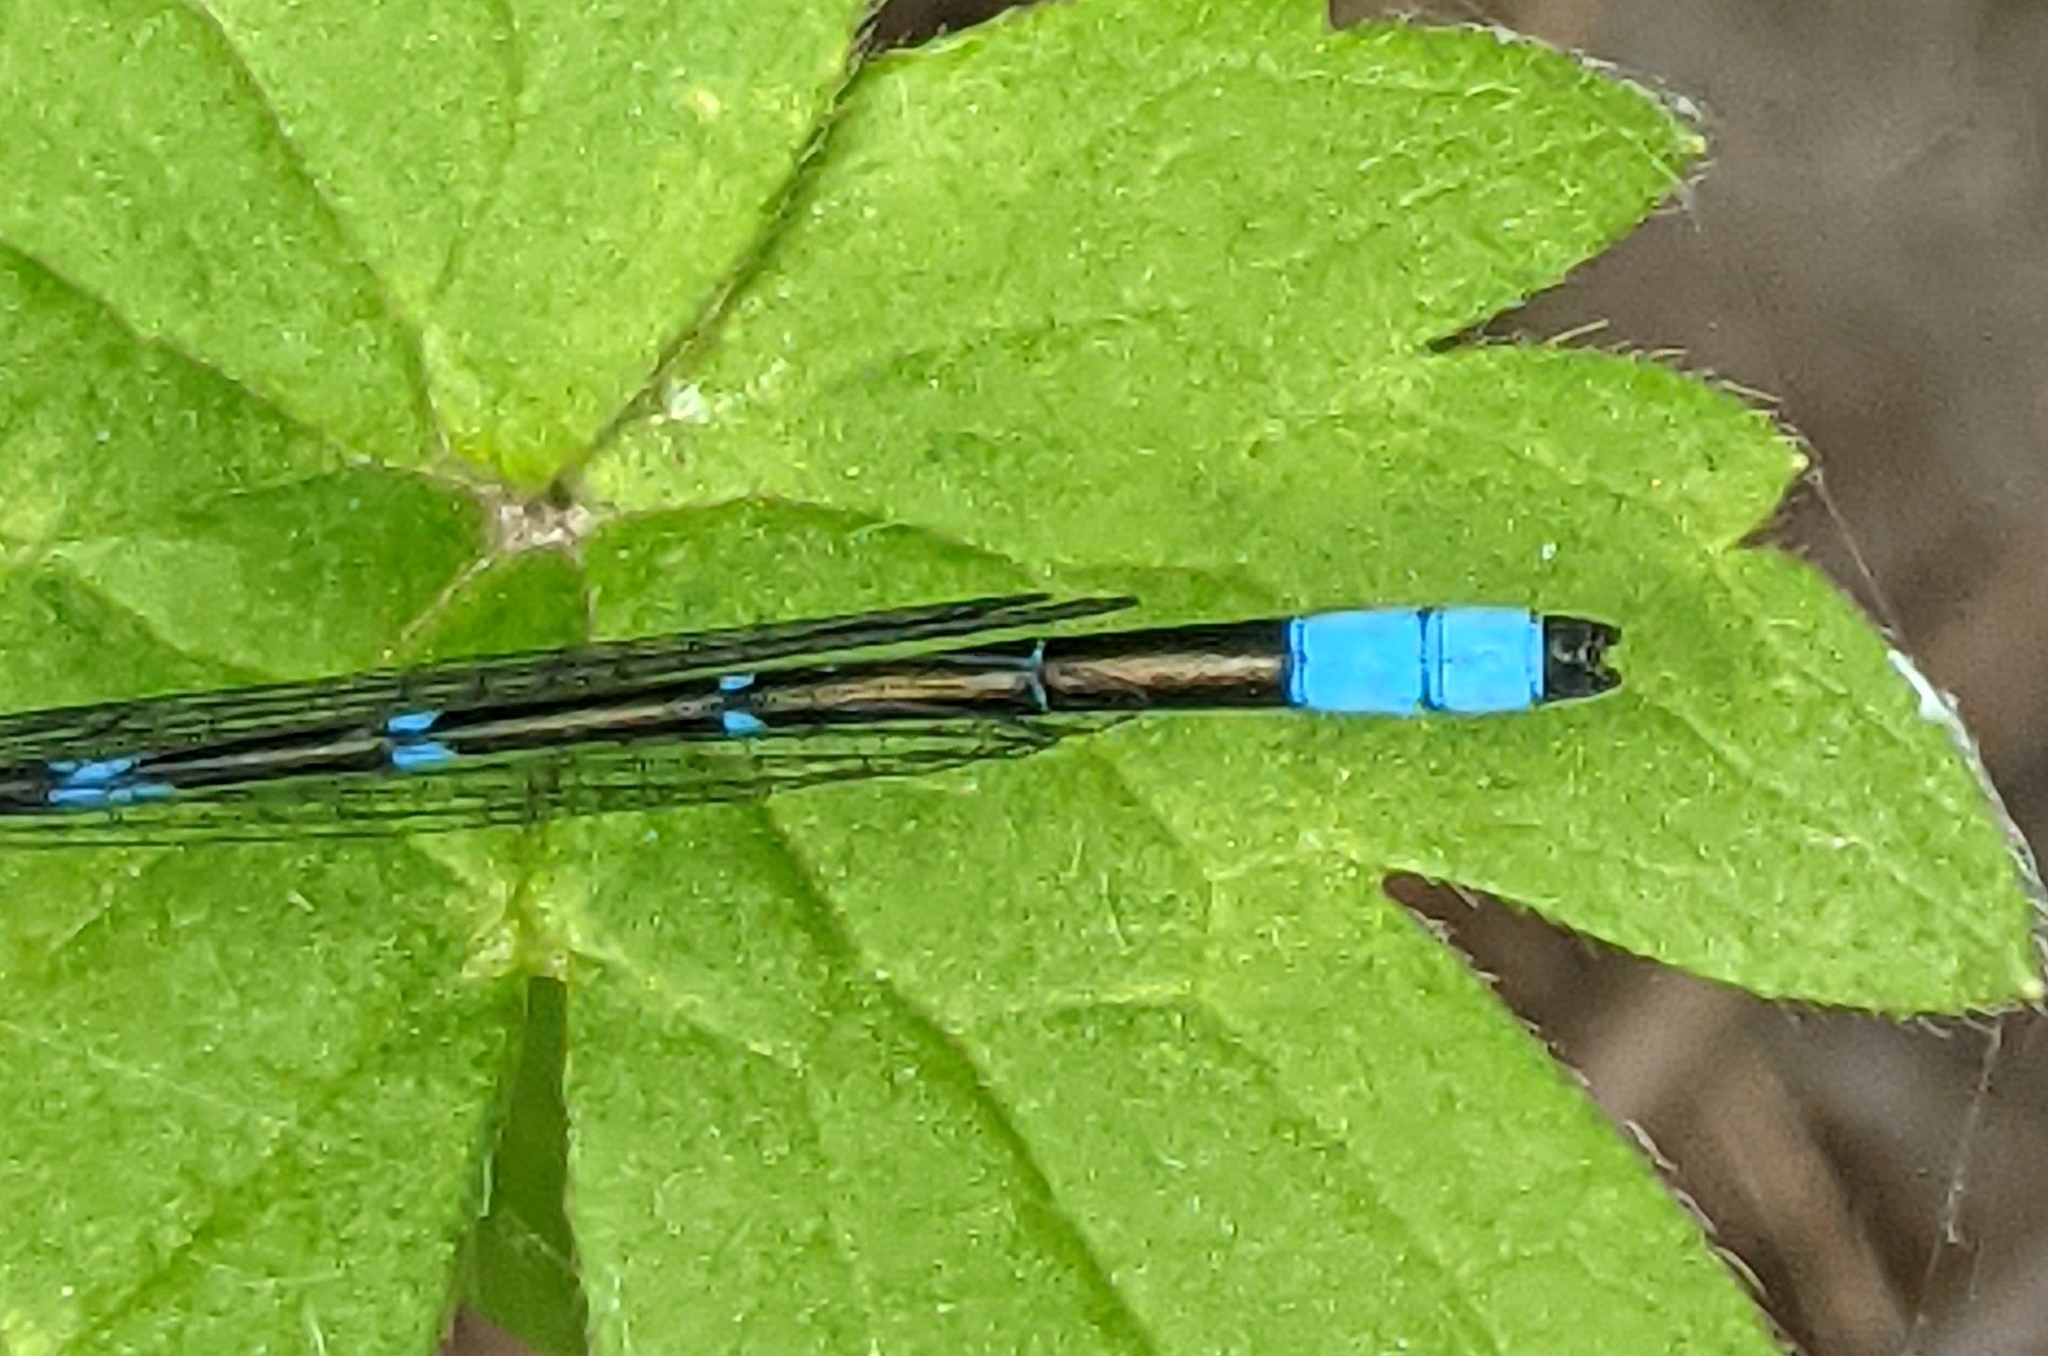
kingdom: Animalia
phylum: Arthropoda
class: Insecta
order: Odonata
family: Coenagrionidae
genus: Enallagma
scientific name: Enallagma carunculatum
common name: Tule bluet
